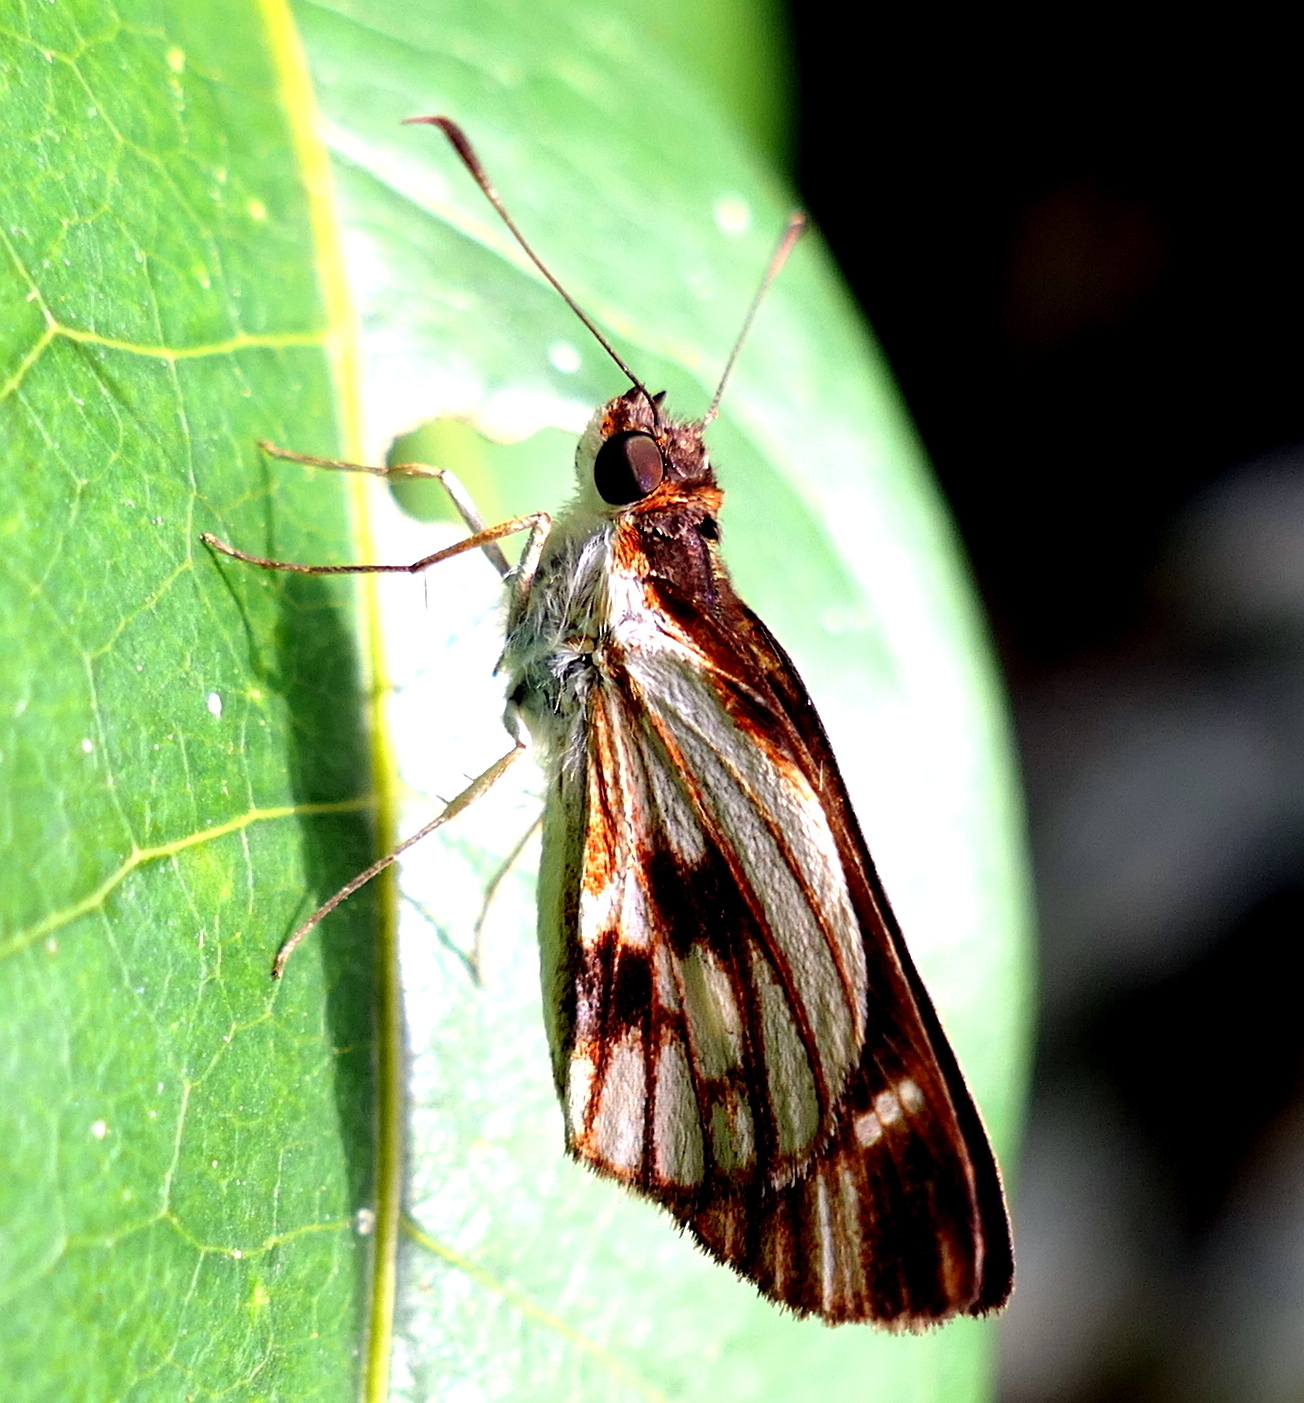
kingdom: Animalia
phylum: Arthropoda
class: Insecta
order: Lepidoptera
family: Hesperiidae
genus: Troyus
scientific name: Troyus fantasos
